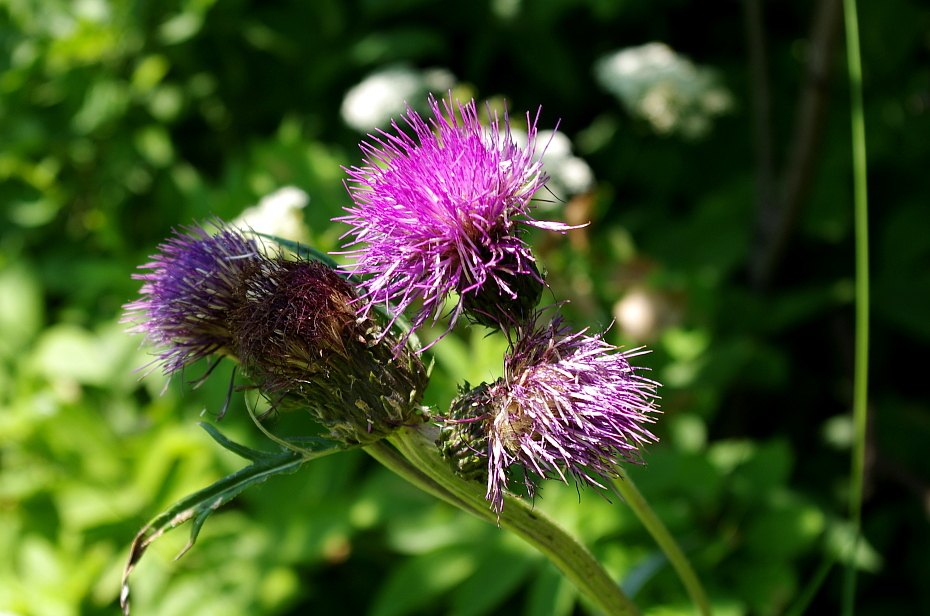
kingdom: Plantae
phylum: Tracheophyta
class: Magnoliopsida
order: Asterales
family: Asteraceae
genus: Cirsium
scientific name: Cirsium heterophyllum
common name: Melancholy thistle
